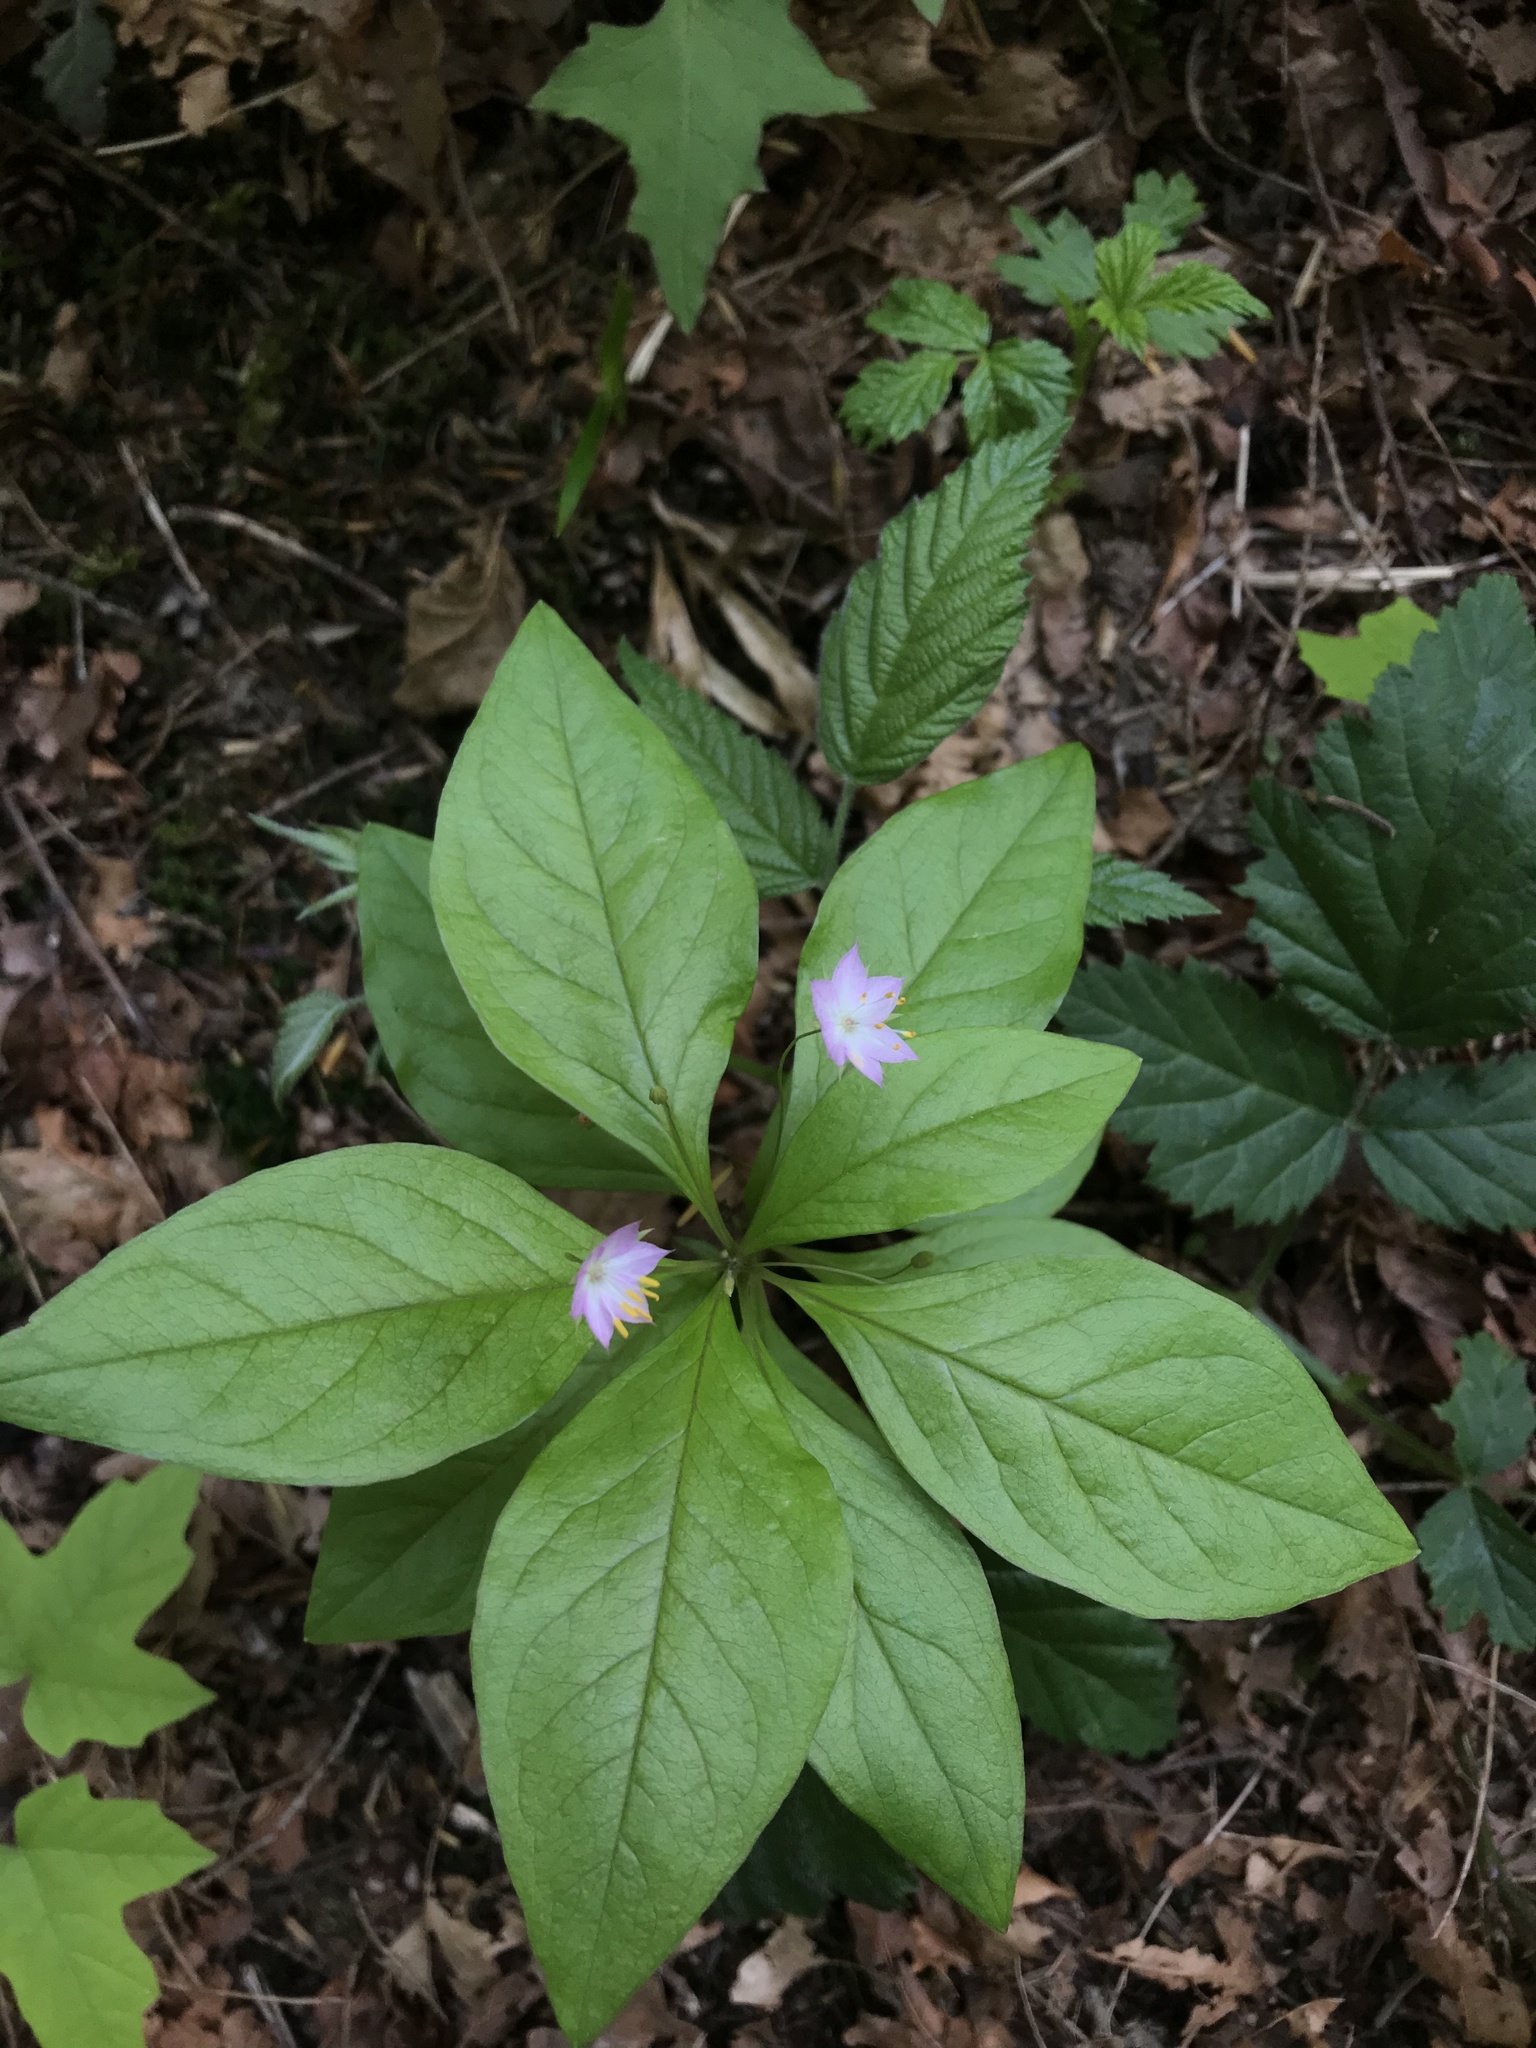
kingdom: Plantae
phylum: Tracheophyta
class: Magnoliopsida
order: Ericales
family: Primulaceae
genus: Lysimachia
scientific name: Lysimachia latifolia
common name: Pacific starflower
